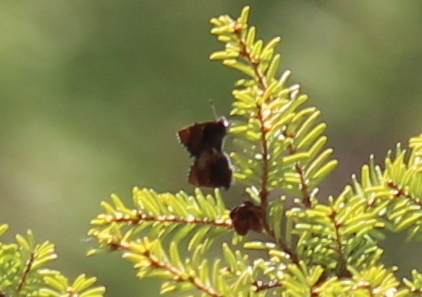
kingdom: Animalia
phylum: Arthropoda
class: Insecta
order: Lepidoptera
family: Lycaenidae
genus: Incisalia
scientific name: Incisalia henrici
